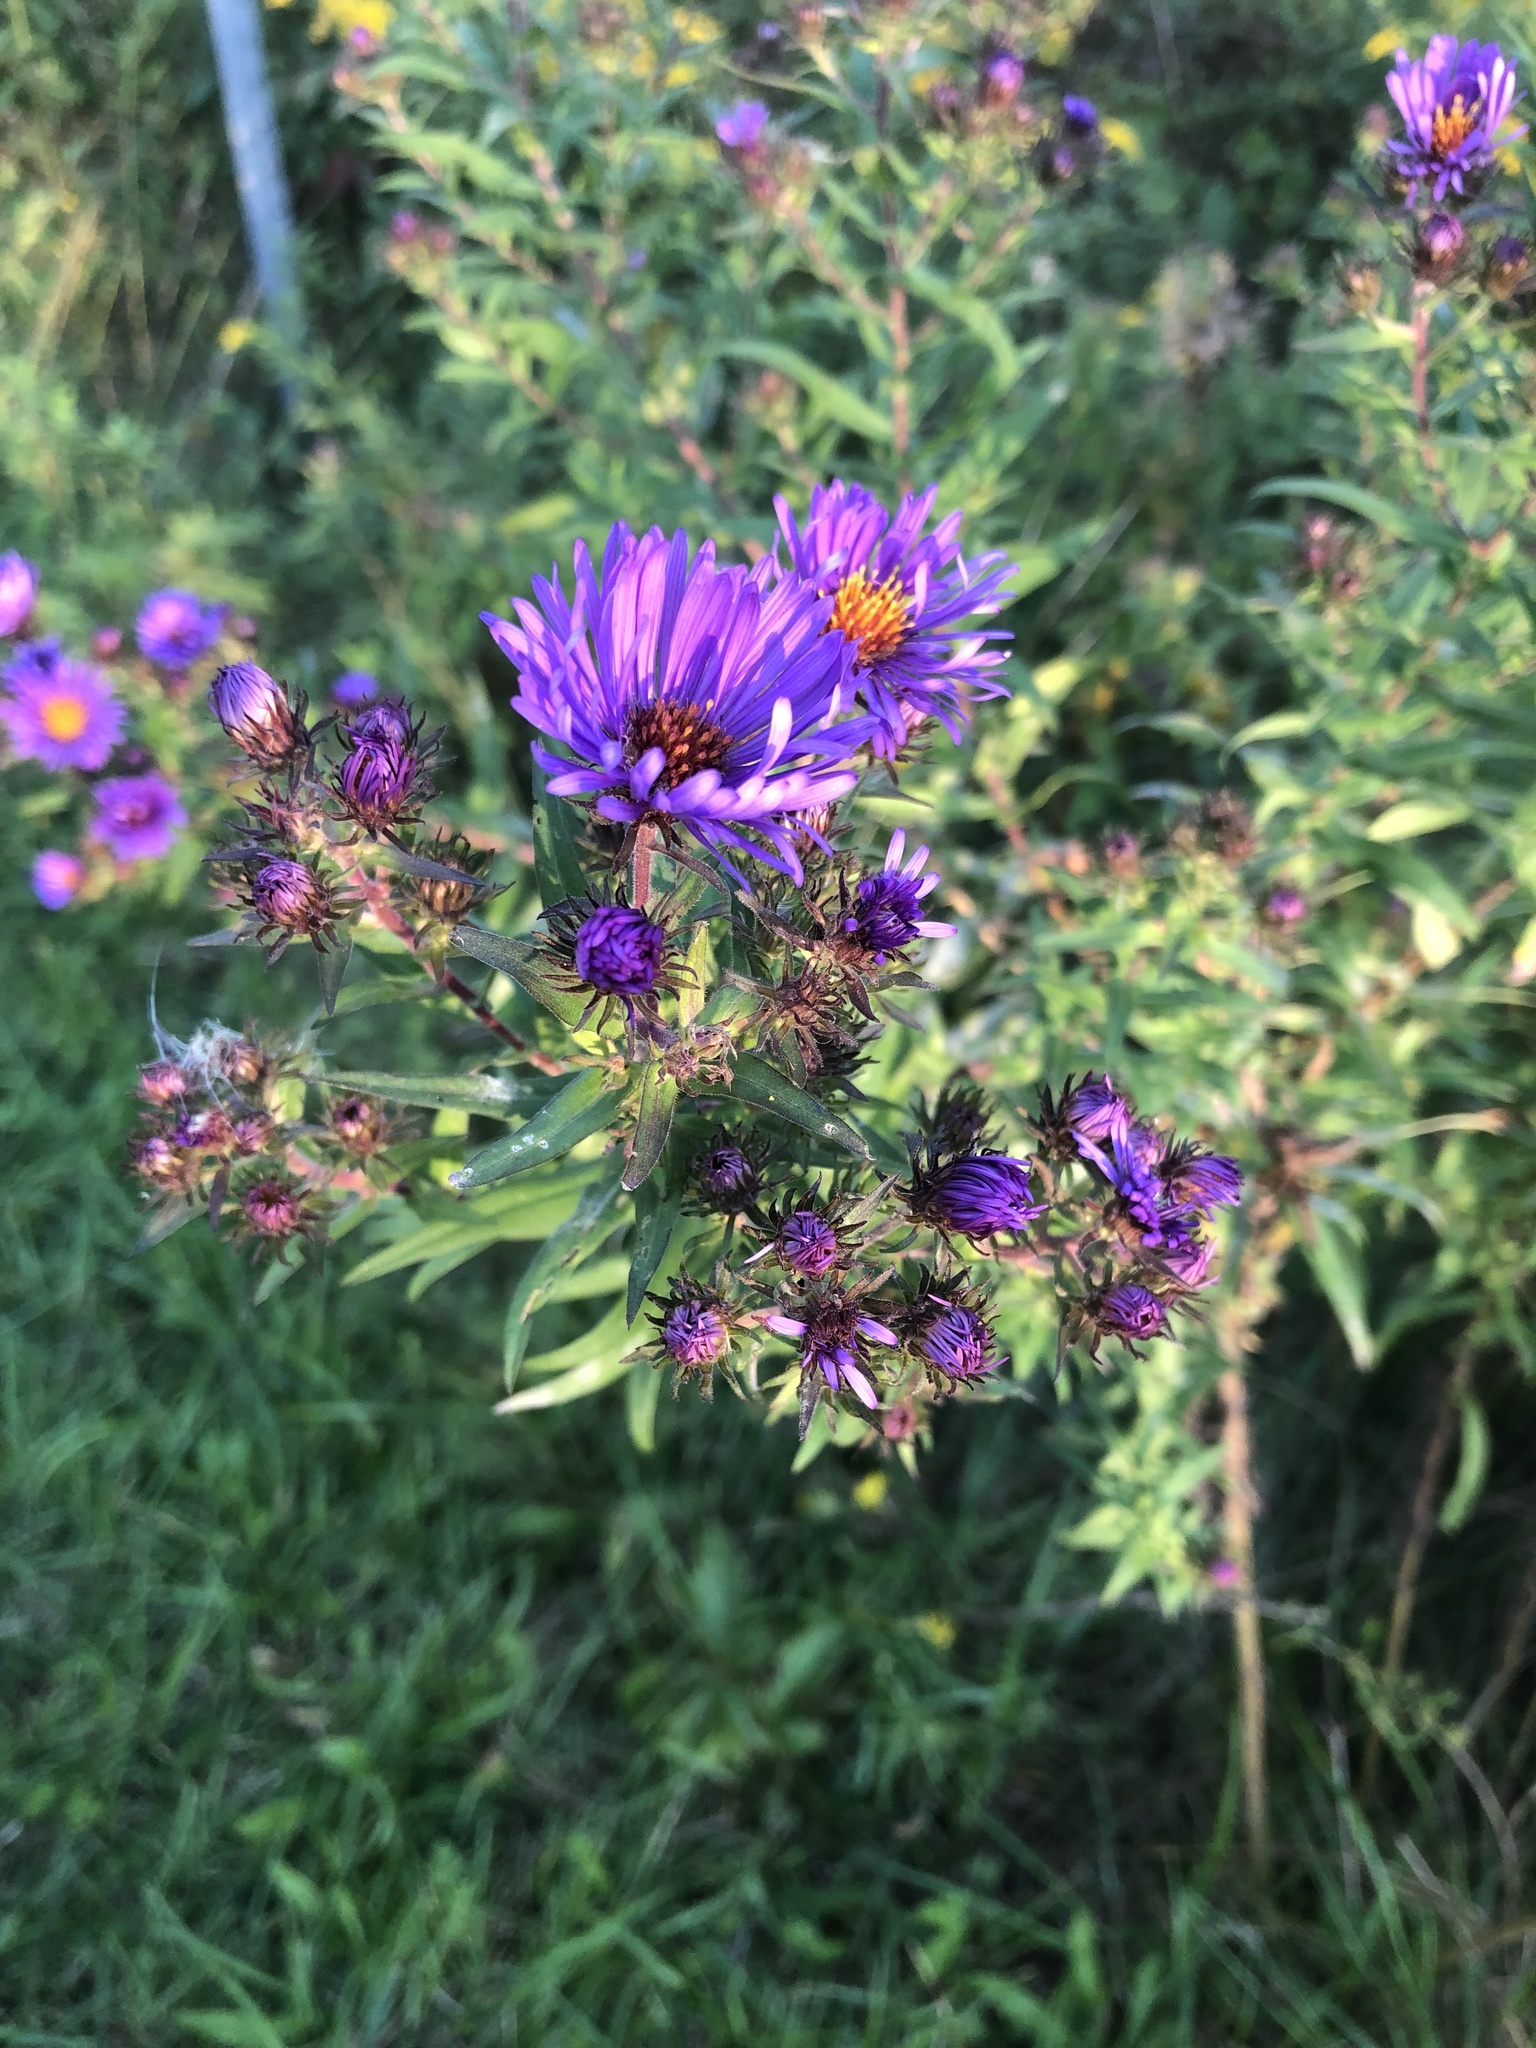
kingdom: Plantae
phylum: Tracheophyta
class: Magnoliopsida
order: Asterales
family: Asteraceae
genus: Symphyotrichum
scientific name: Symphyotrichum novae-angliae
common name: Michaelmas daisy
